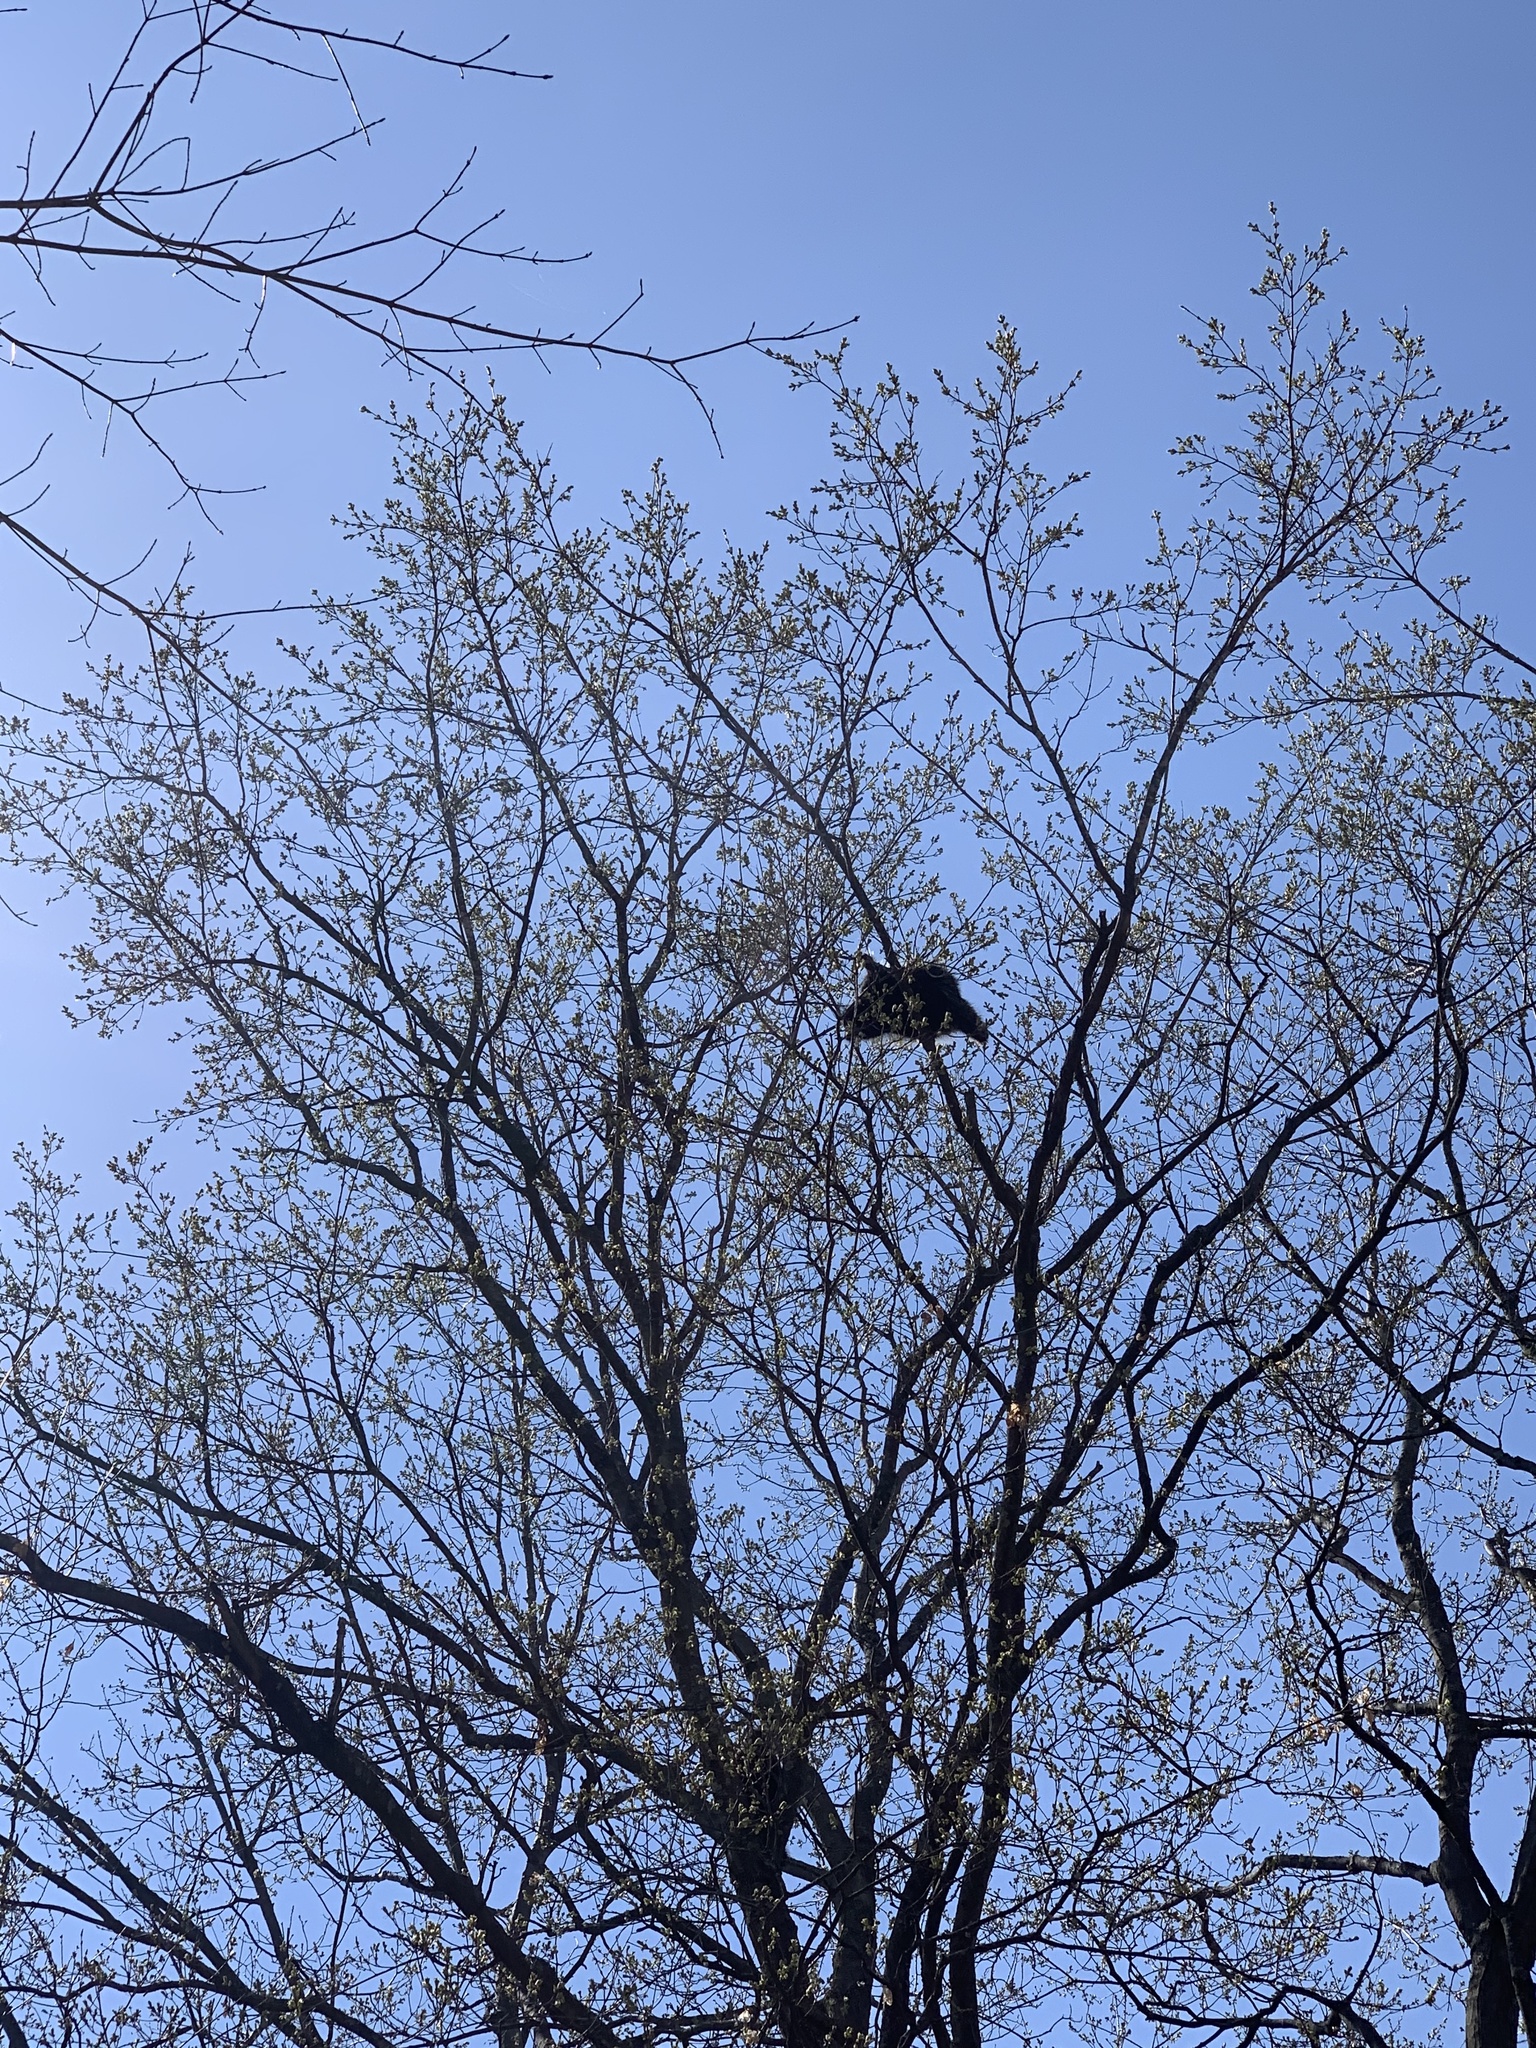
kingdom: Animalia
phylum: Chordata
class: Mammalia
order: Rodentia
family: Erethizontidae
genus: Erethizon
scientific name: Erethizon dorsatus
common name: North american porcupine
